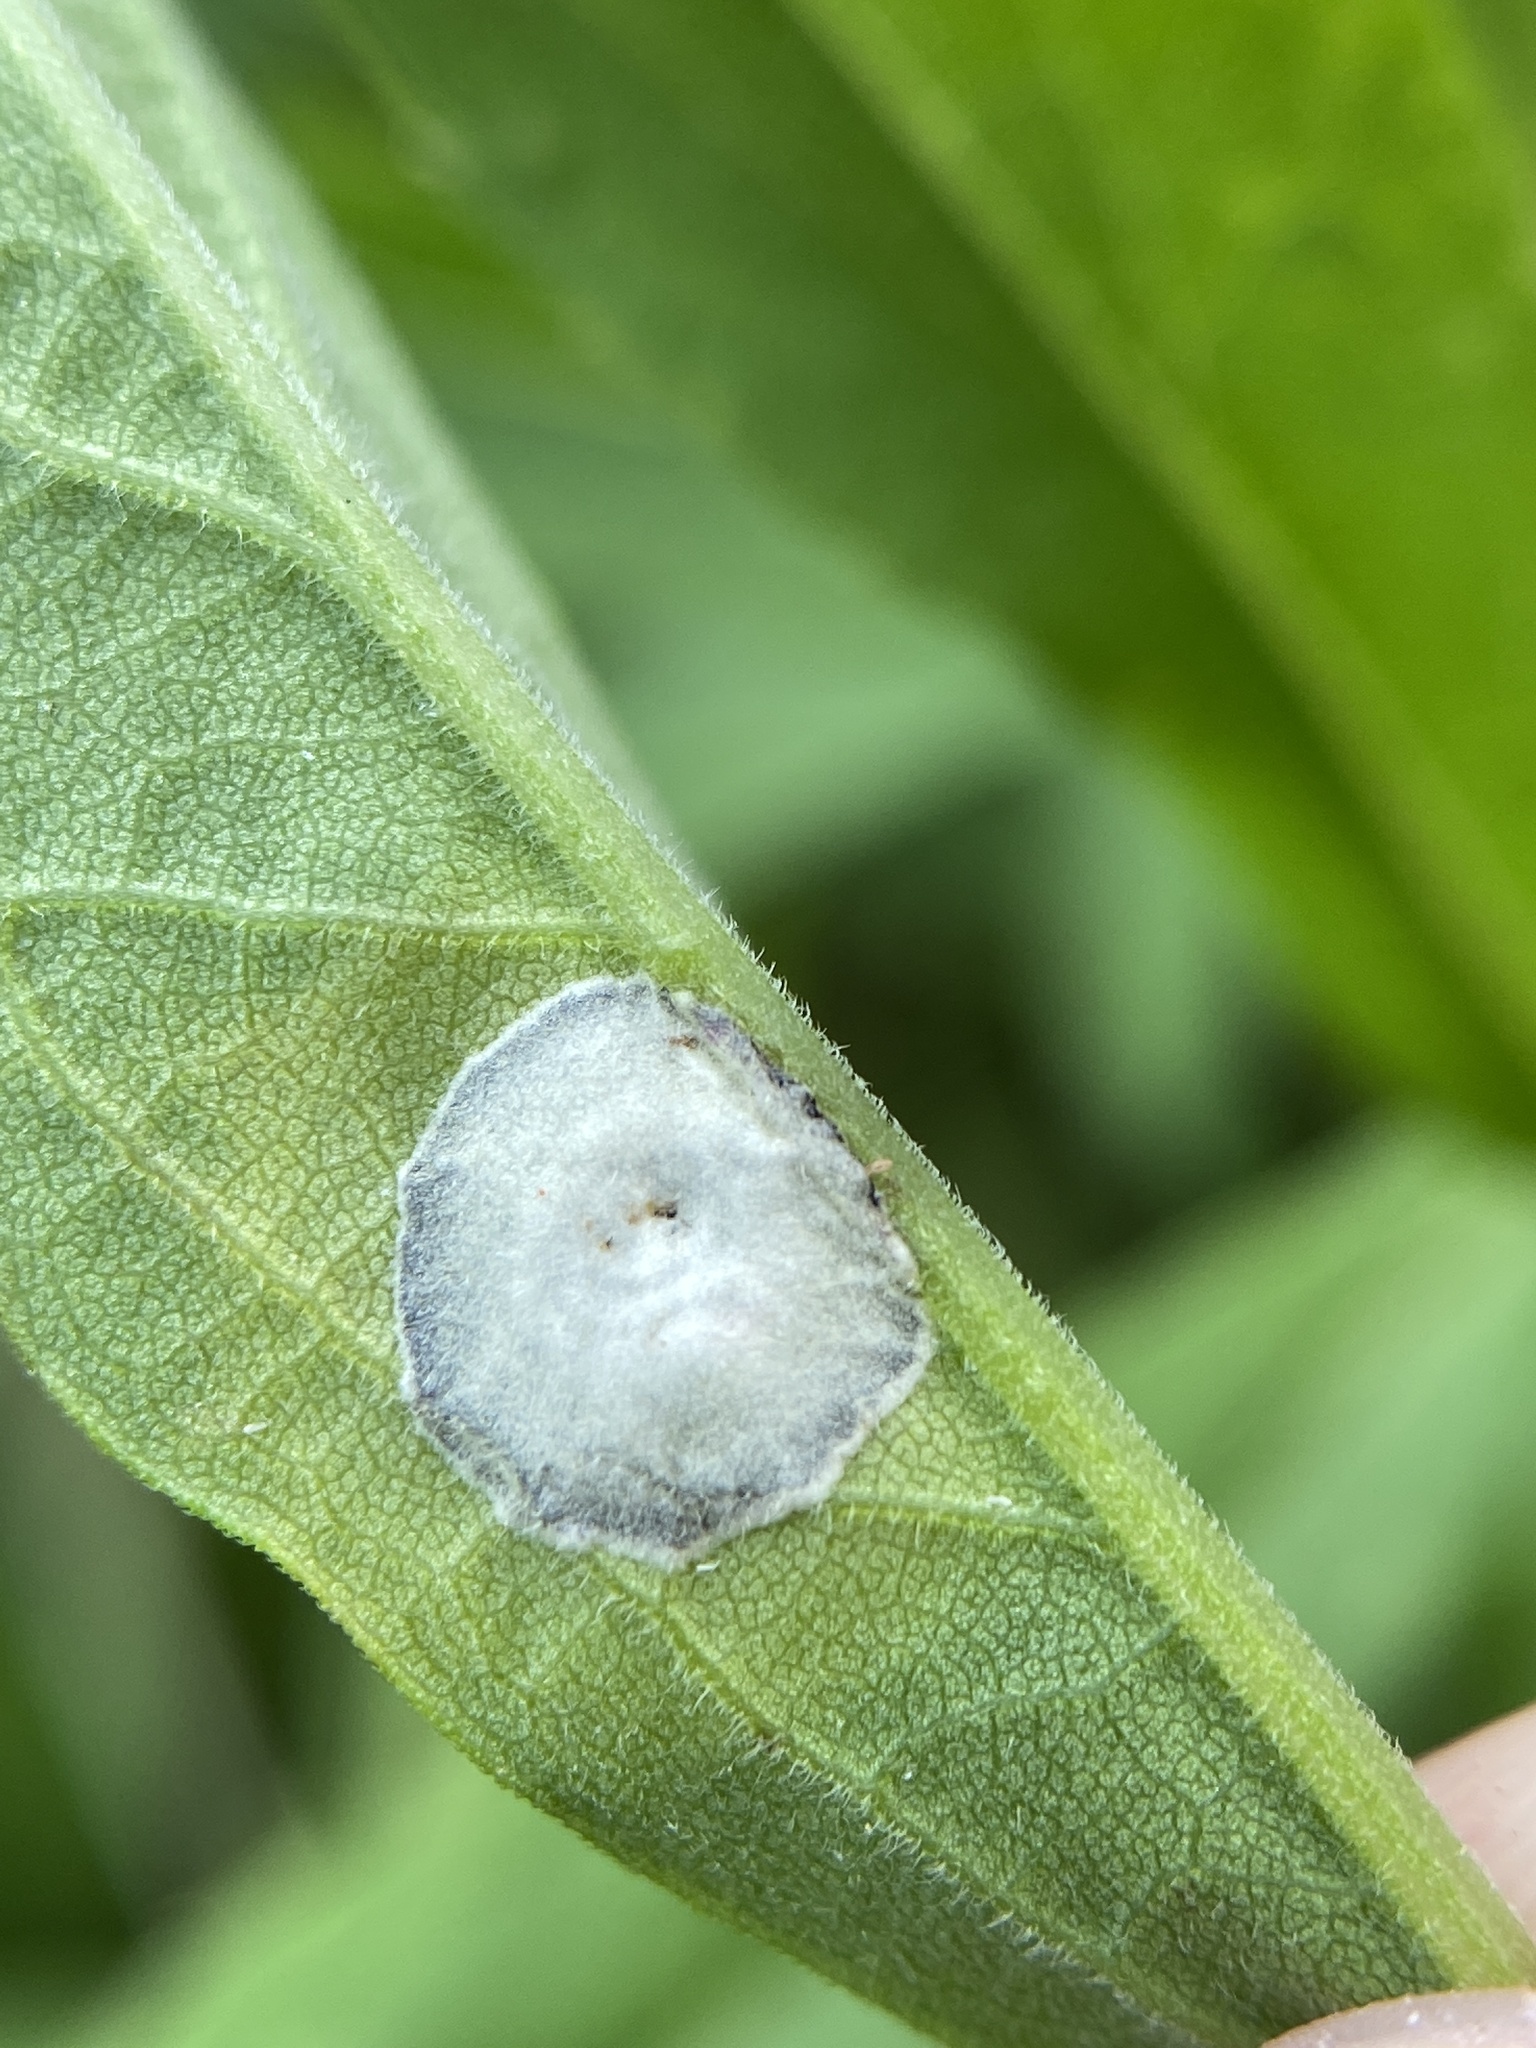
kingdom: Animalia
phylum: Arthropoda
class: Insecta
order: Diptera
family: Cecidomyiidae
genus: Asteromyia
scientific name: Asteromyia carbonifera
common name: Carbonifera goldenrod gall midge
